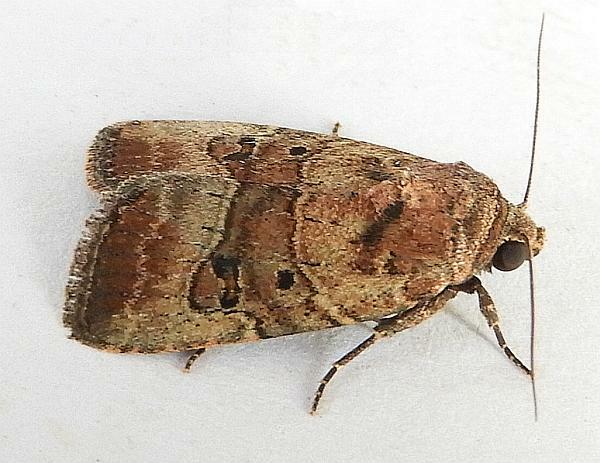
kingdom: Animalia
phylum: Arthropoda
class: Insecta
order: Lepidoptera
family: Noctuidae
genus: Elaphria
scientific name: Elaphria fuscimacula
